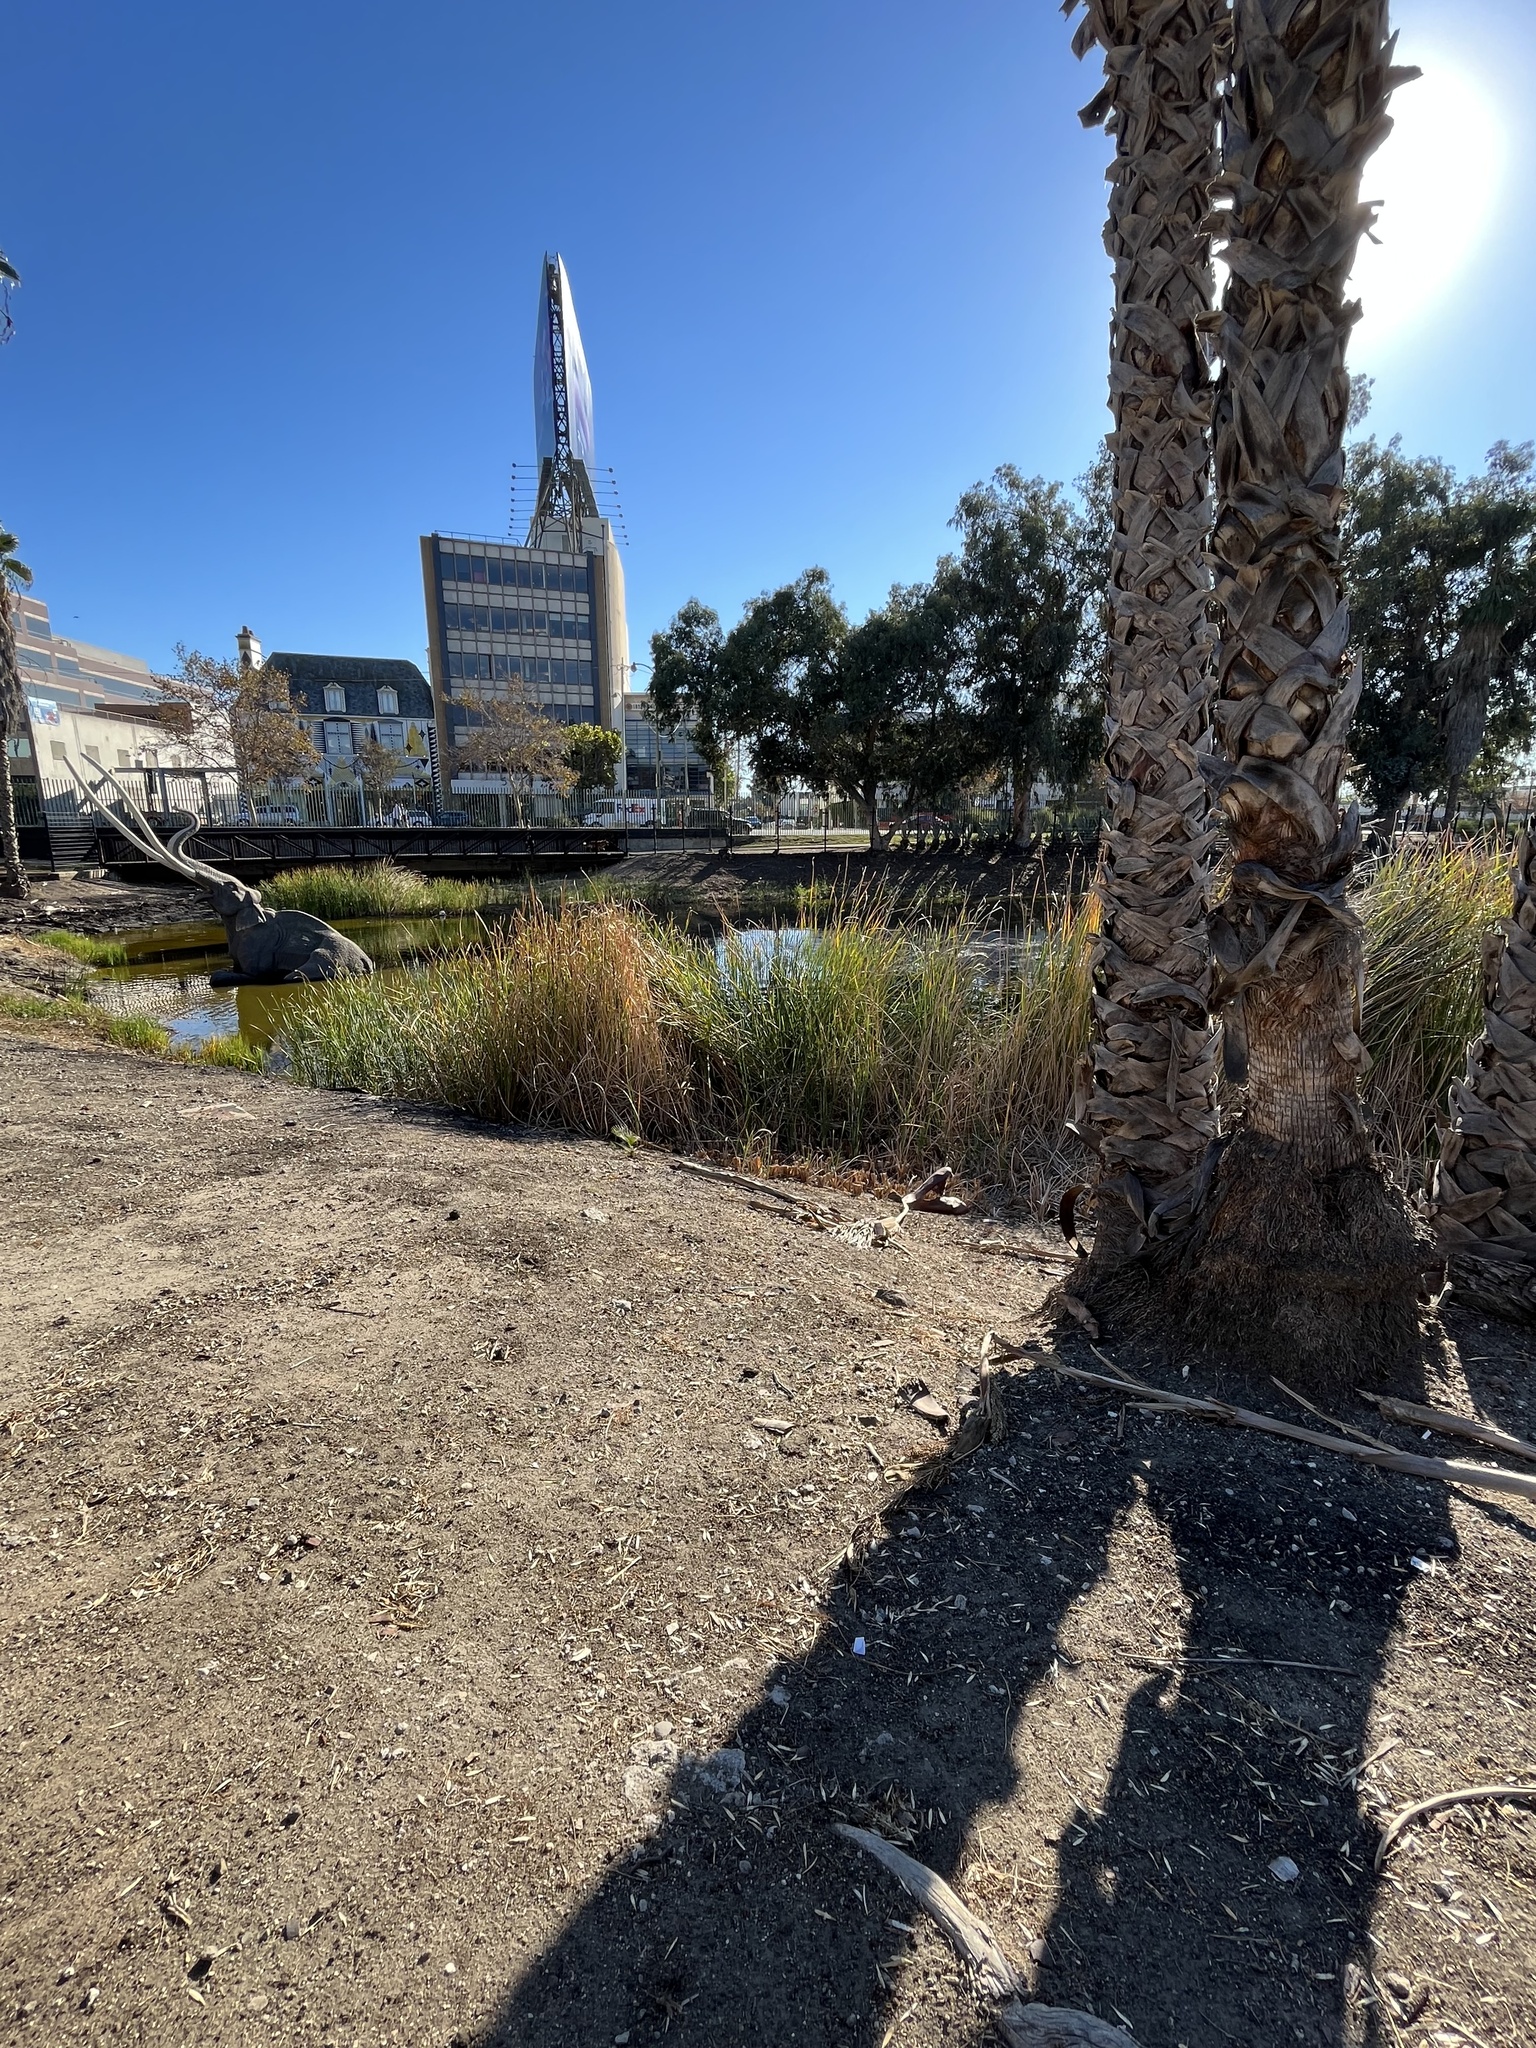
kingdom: Animalia
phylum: Chordata
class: Mammalia
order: Rodentia
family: Sciuridae
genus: Sciurus
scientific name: Sciurus niger
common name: Fox squirrel
